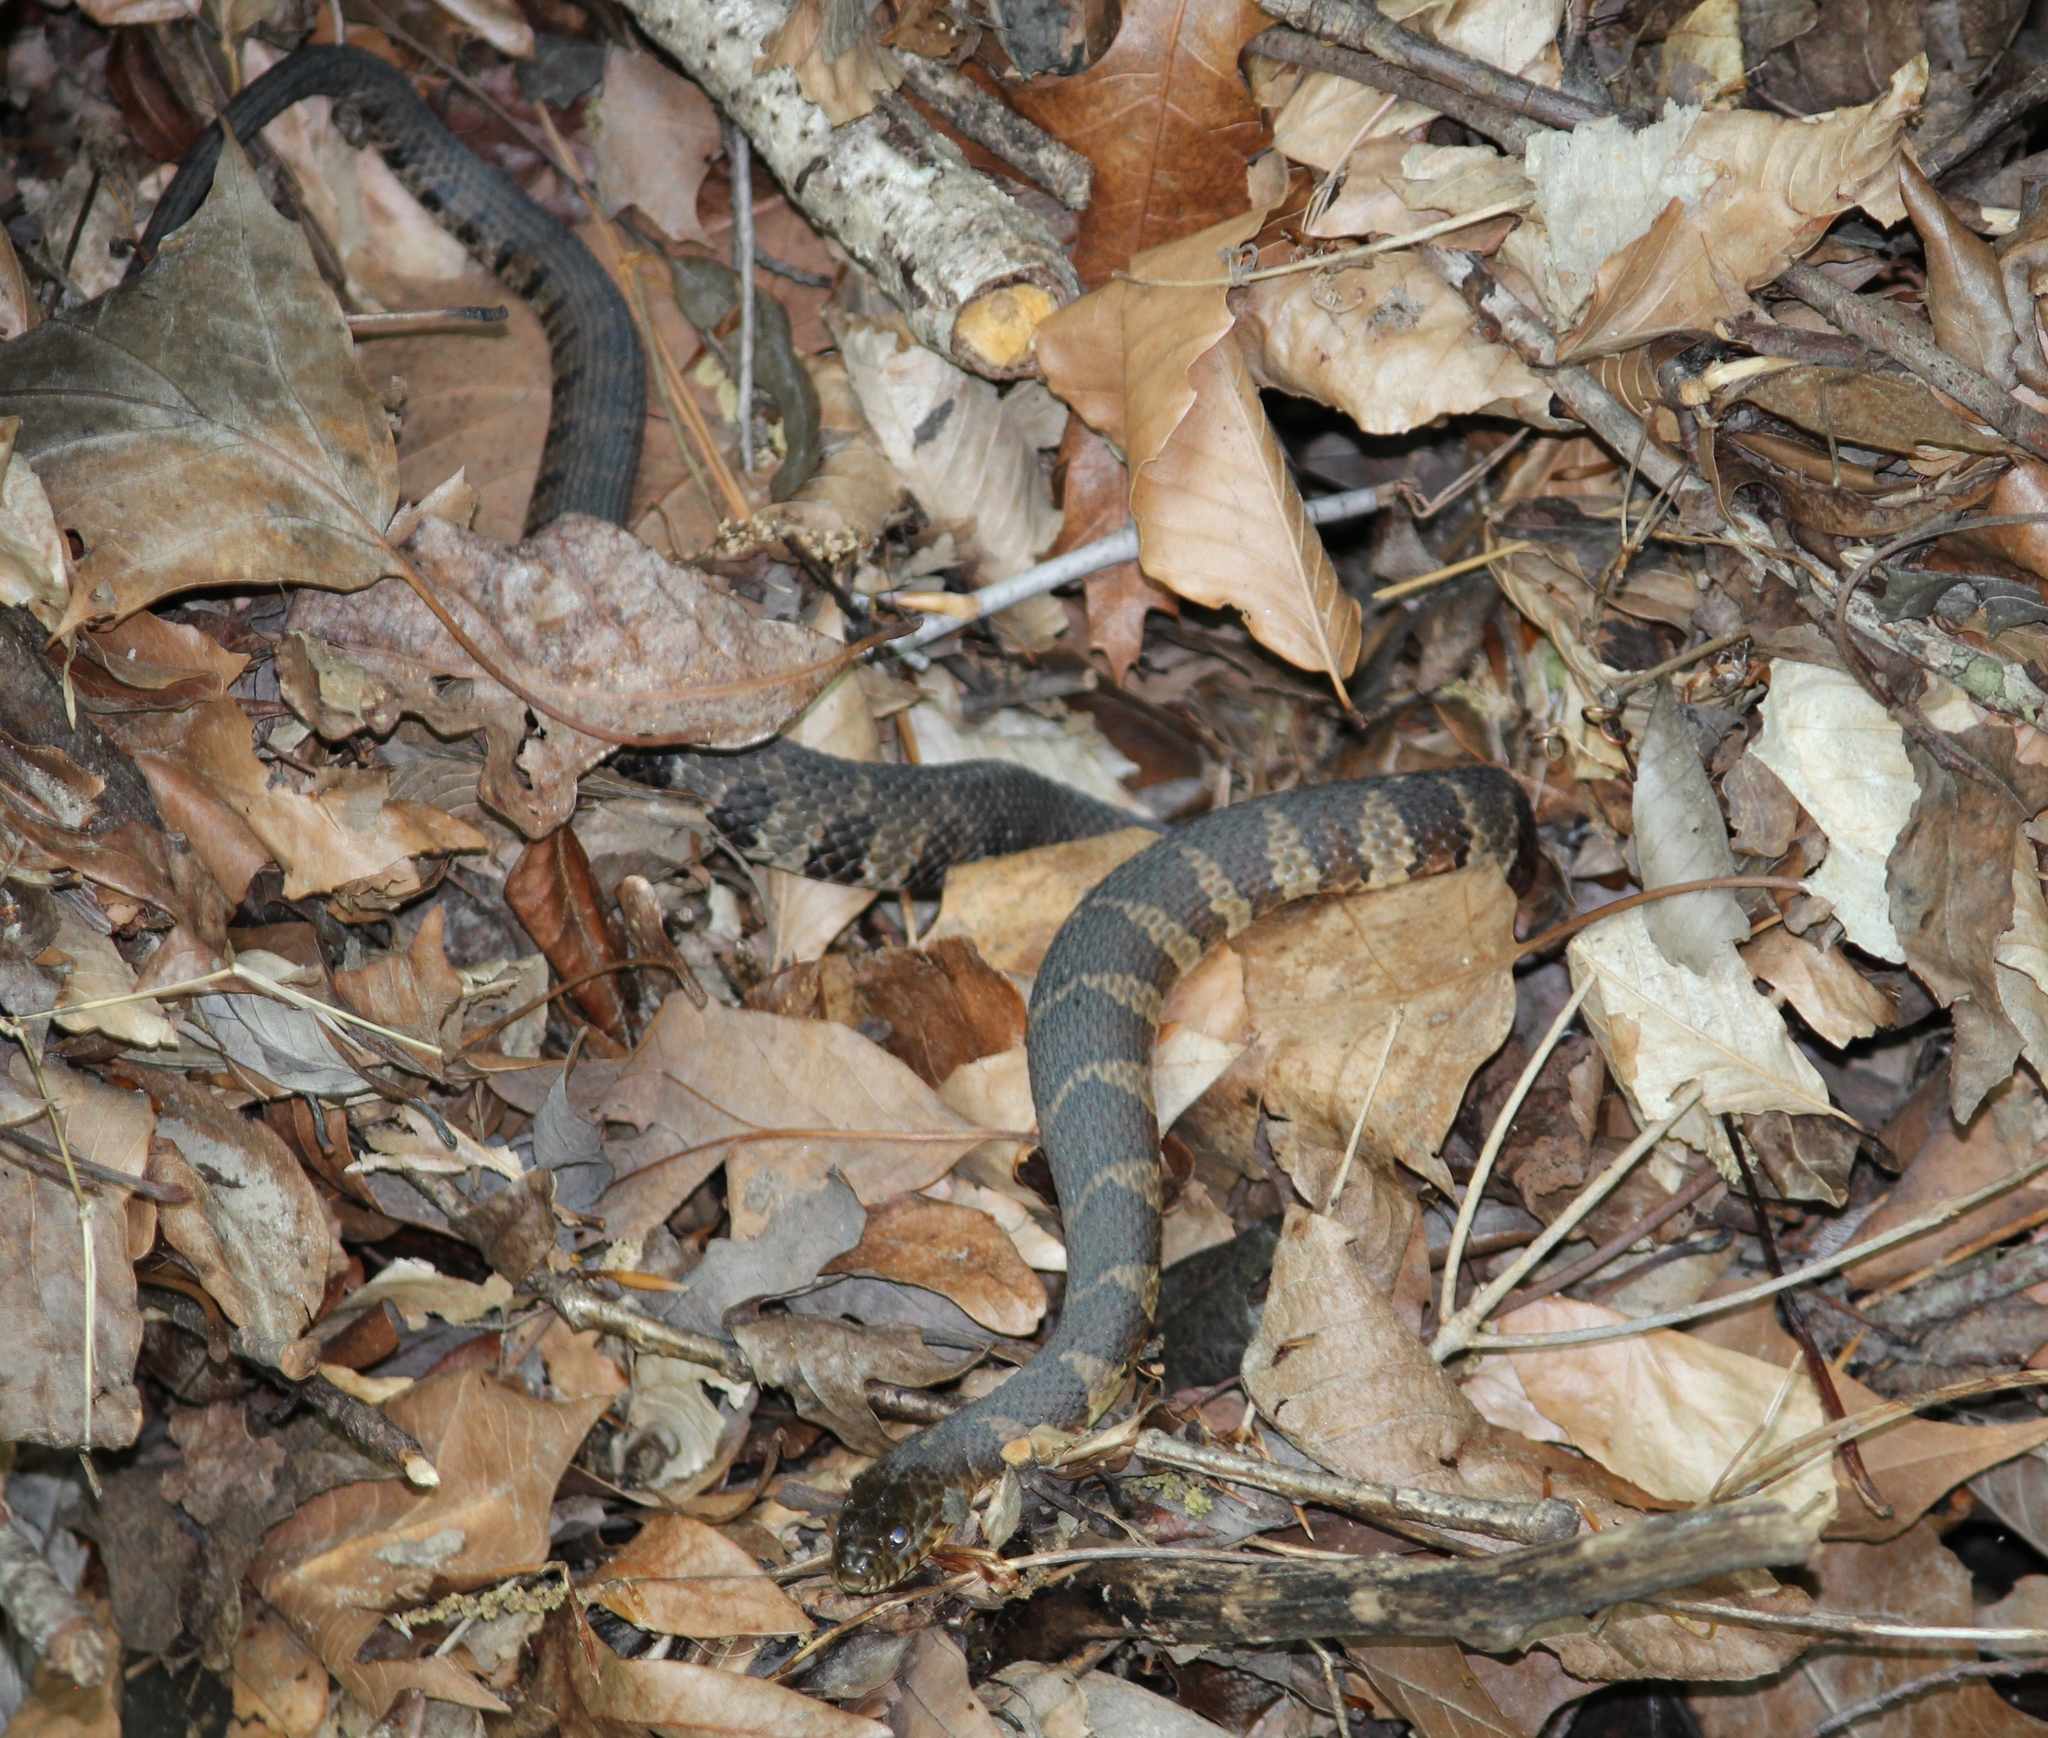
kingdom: Animalia
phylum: Chordata
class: Squamata
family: Colubridae
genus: Nerodia
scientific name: Nerodia sipedon
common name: Northern water snake
